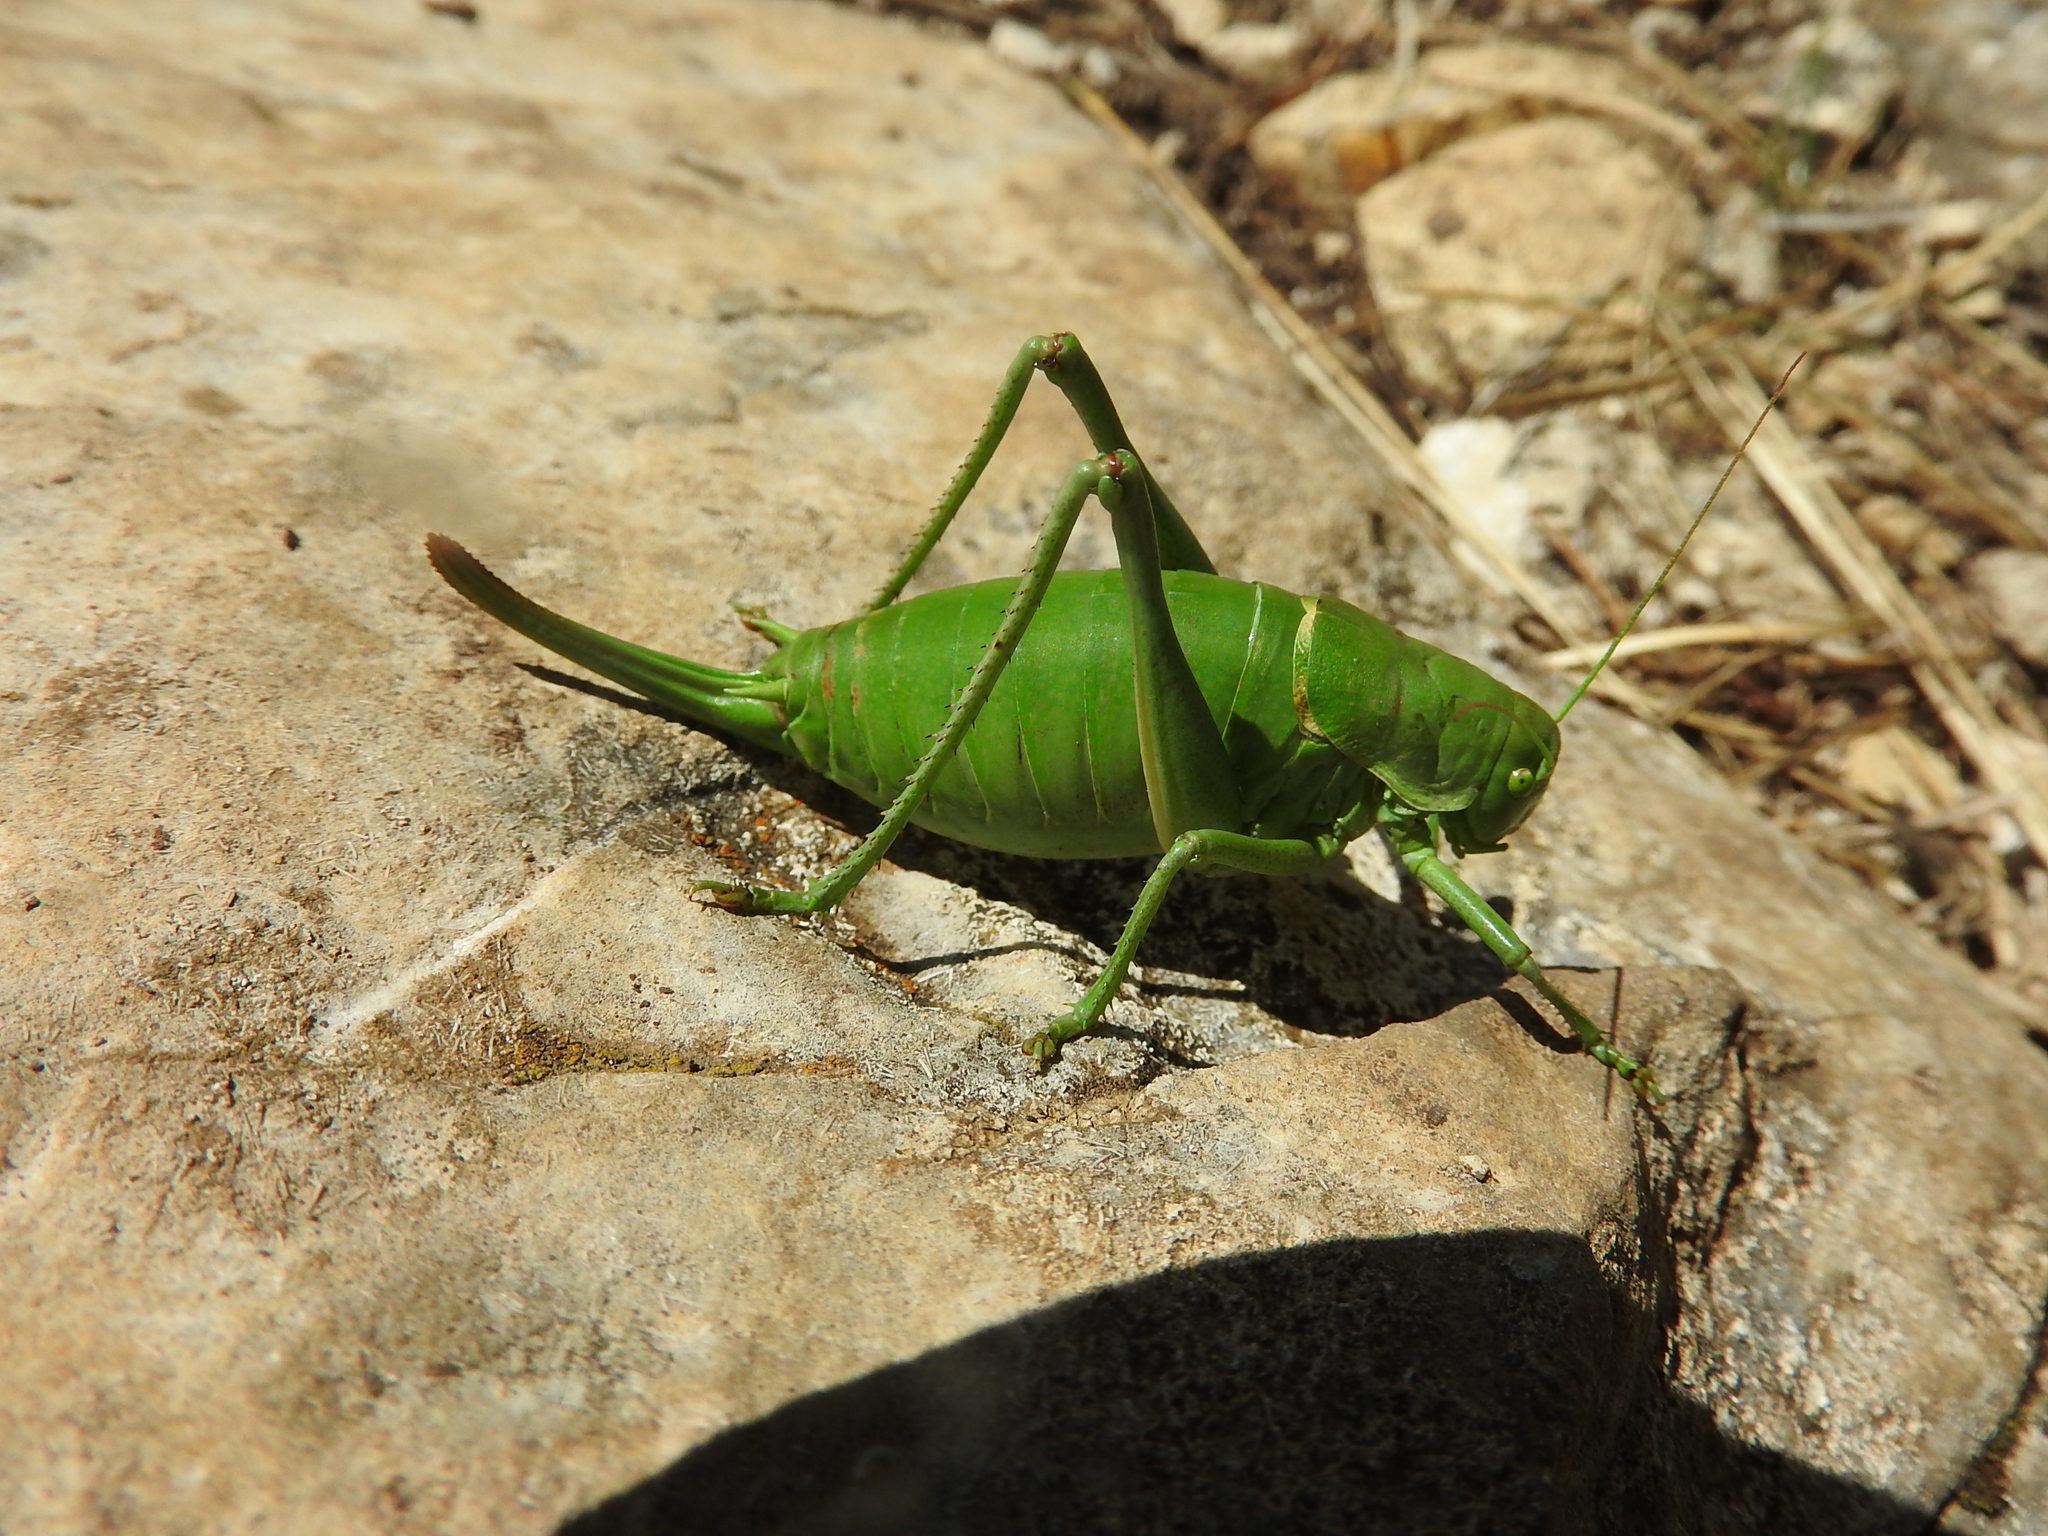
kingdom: Animalia
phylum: Arthropoda
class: Insecta
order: Orthoptera
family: Tettigoniidae
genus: Polysarcus
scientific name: Polysarcus denticauda
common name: Large saw-tailed bush-cricket
